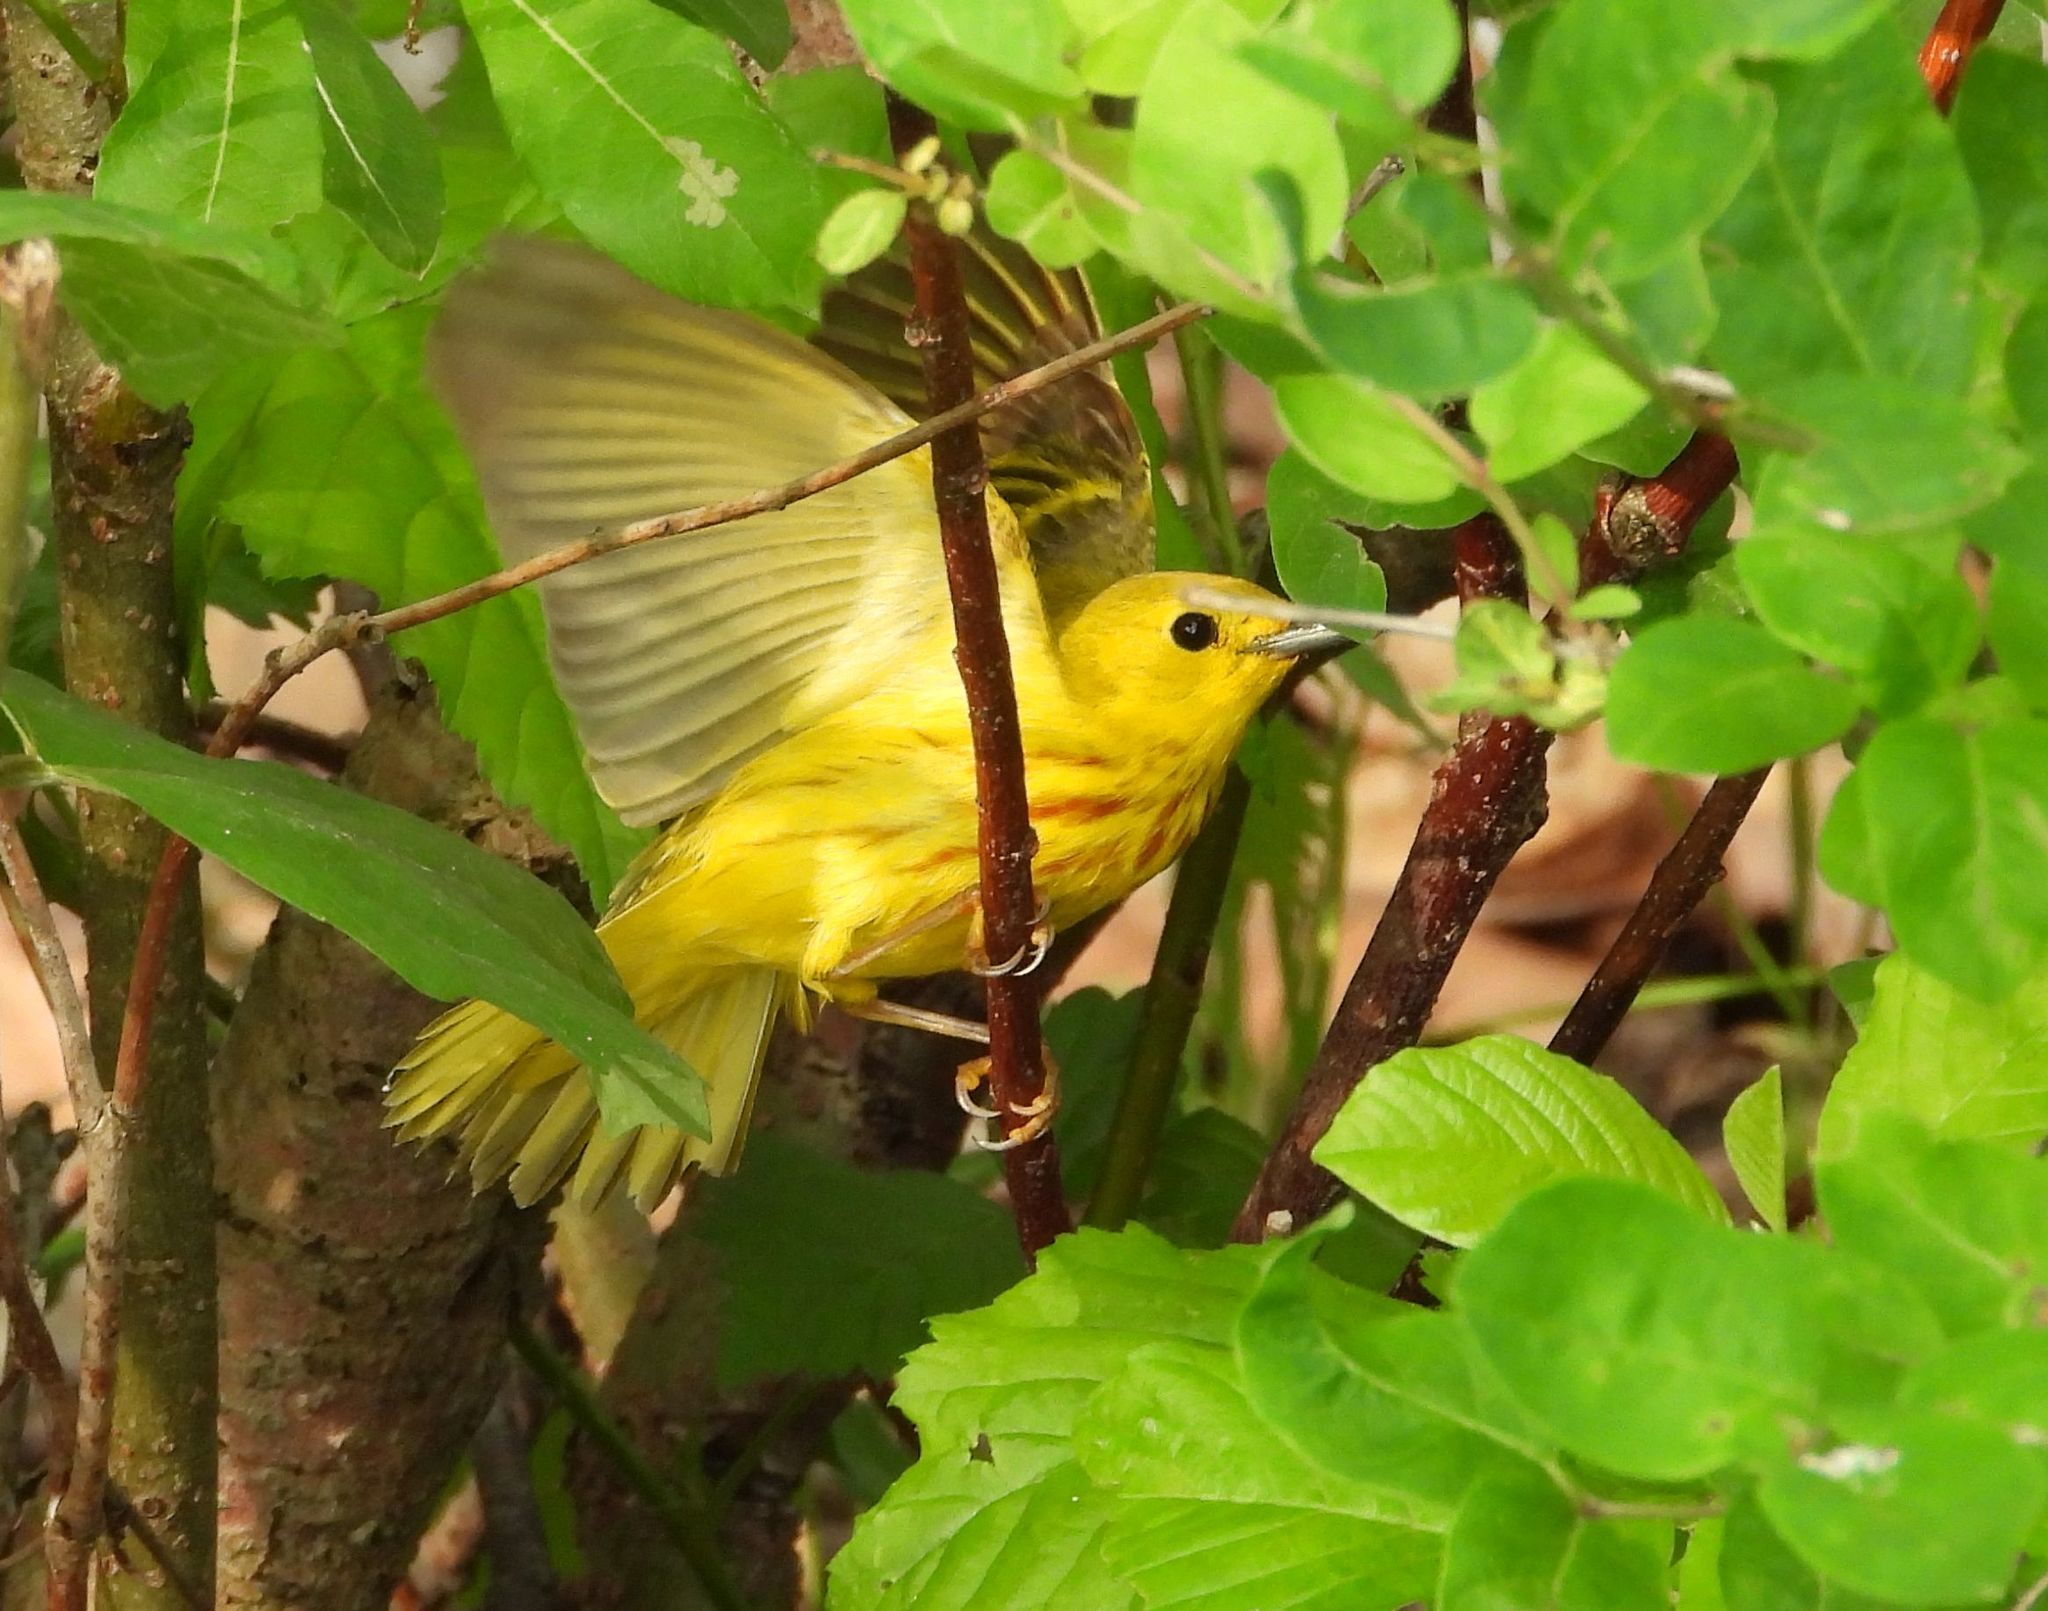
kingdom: Animalia
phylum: Chordata
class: Aves
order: Passeriformes
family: Parulidae
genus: Setophaga
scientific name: Setophaga petechia
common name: Yellow warbler
